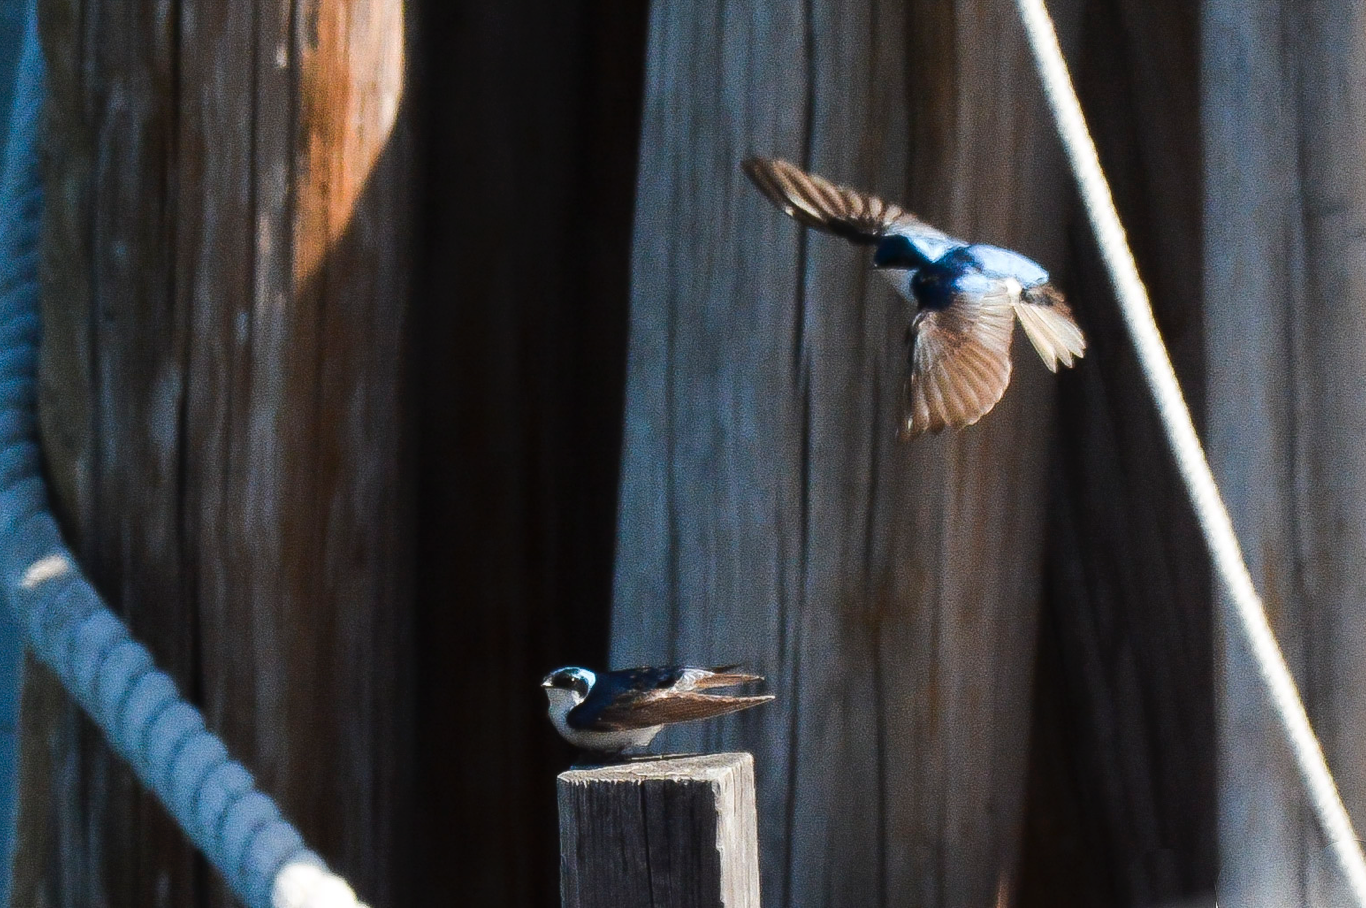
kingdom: Animalia
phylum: Chordata
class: Aves
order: Passeriformes
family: Hirundinidae
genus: Tachycineta
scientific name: Tachycineta bicolor
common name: Tree swallow
